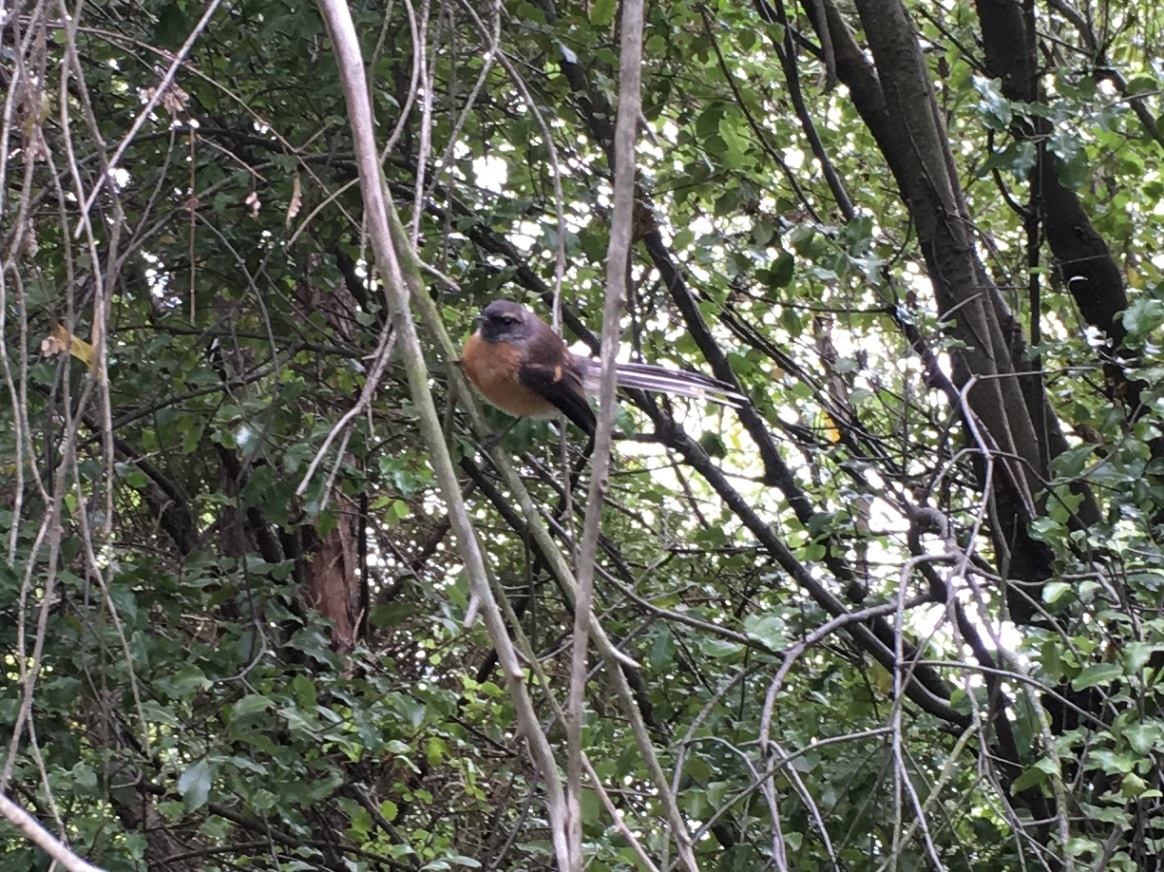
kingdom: Animalia
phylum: Chordata
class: Aves
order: Passeriformes
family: Rhipiduridae
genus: Rhipidura
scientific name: Rhipidura fuliginosa
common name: New zealand fantail
